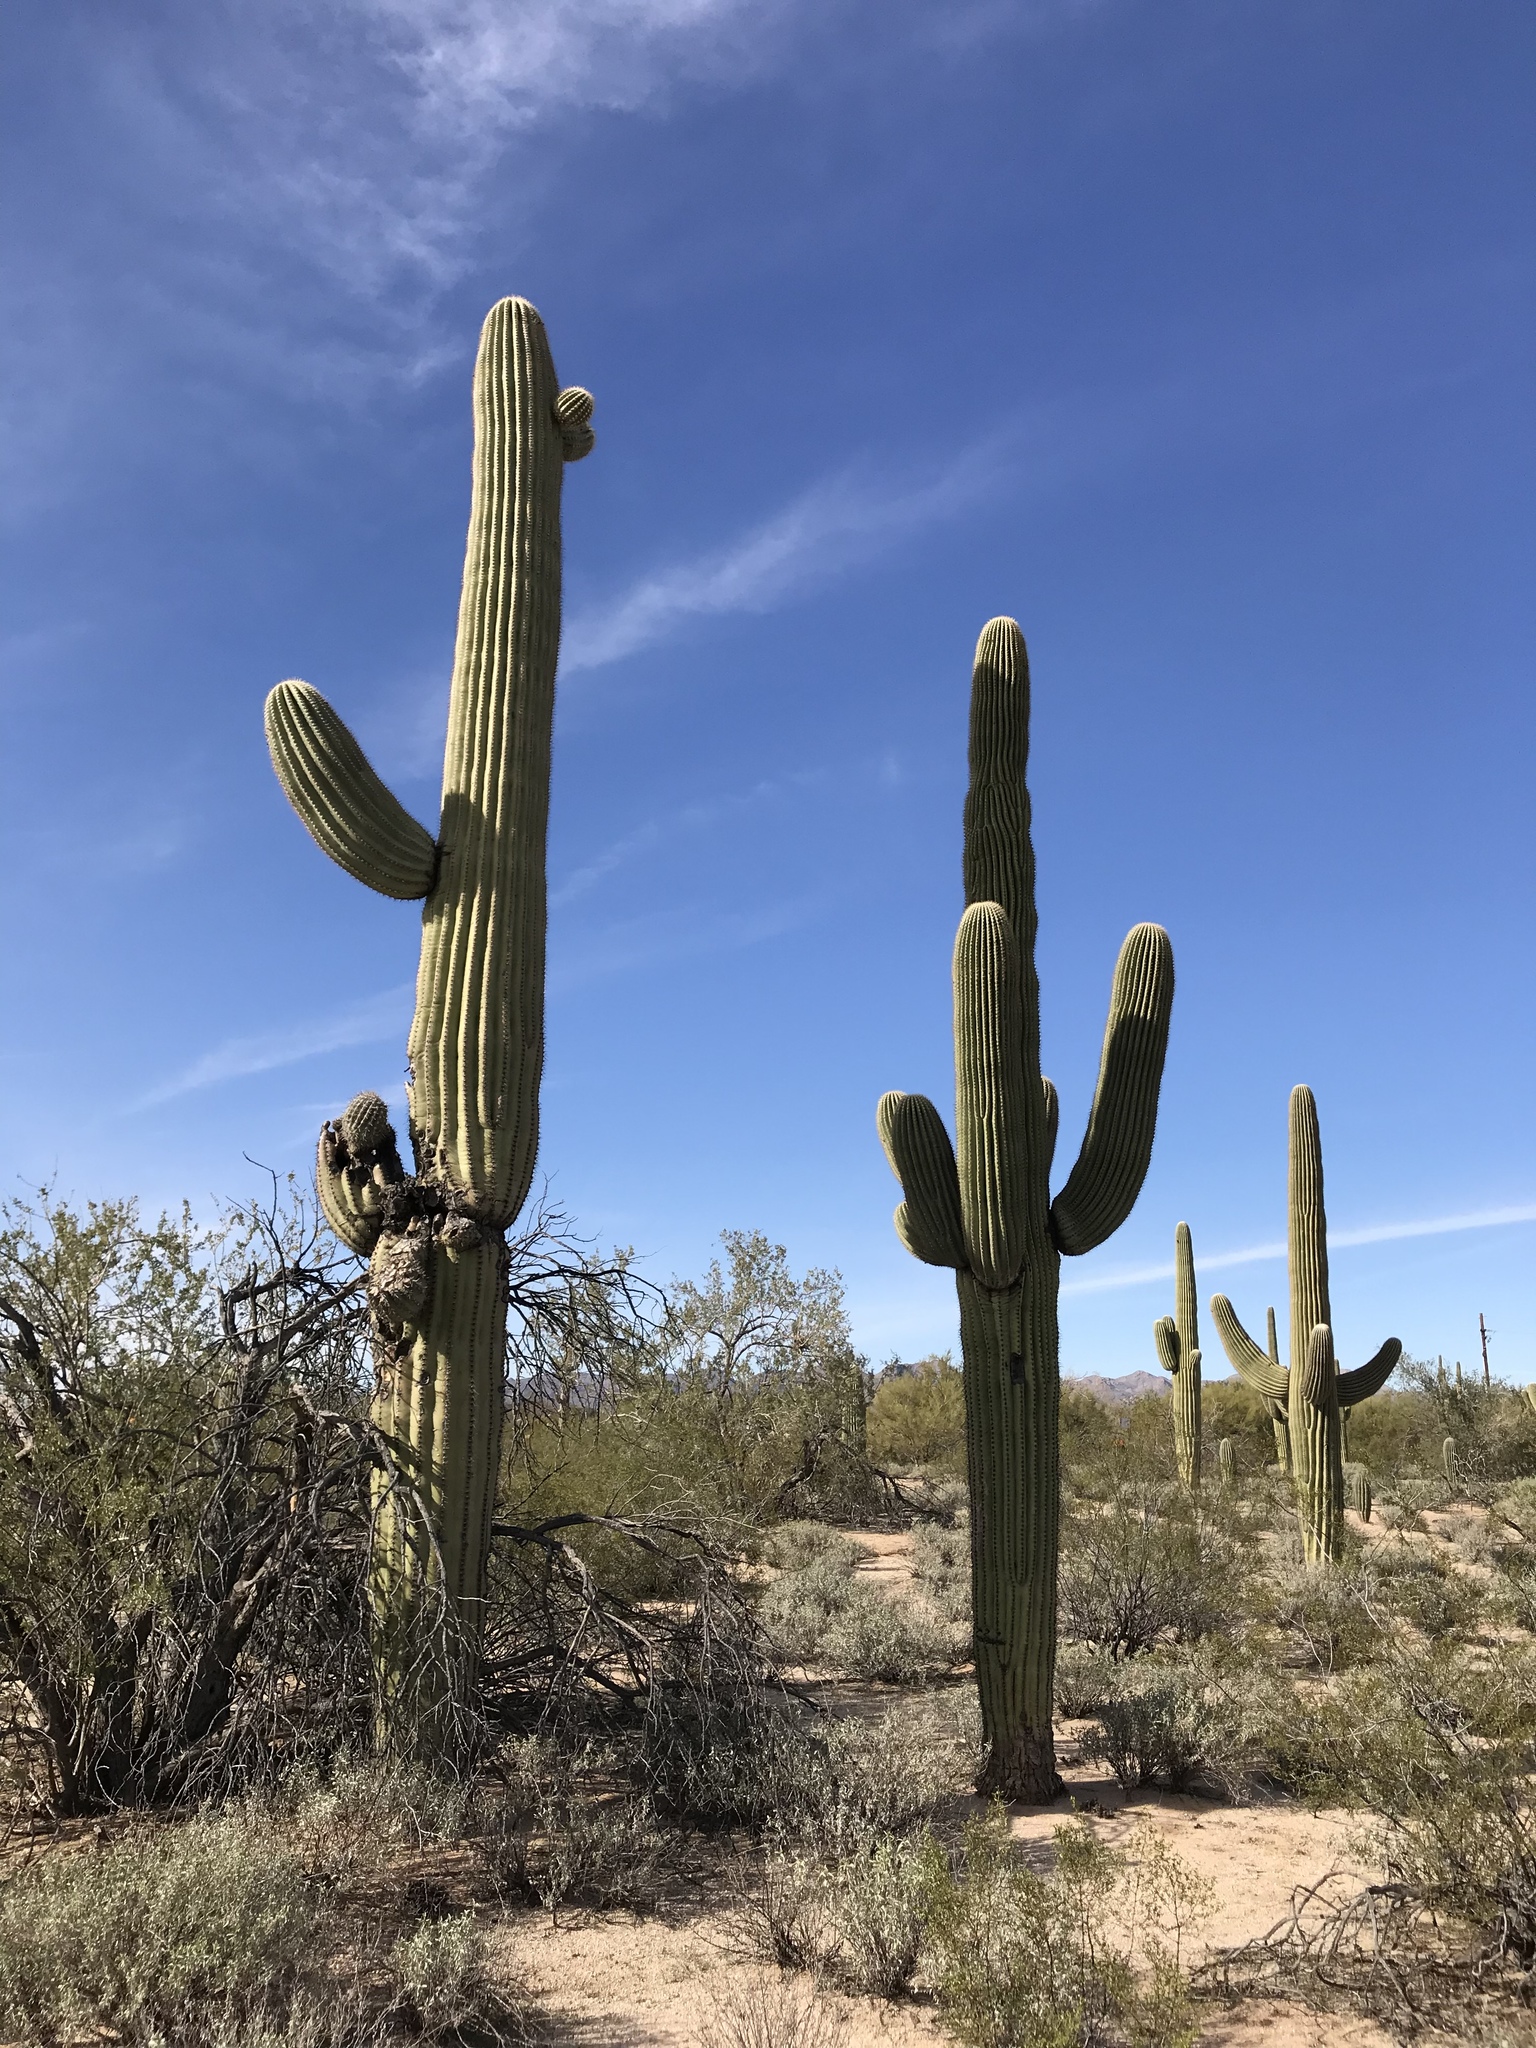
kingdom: Plantae
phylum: Tracheophyta
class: Magnoliopsida
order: Caryophyllales
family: Cactaceae
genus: Carnegiea
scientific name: Carnegiea gigantea
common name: Saguaro
